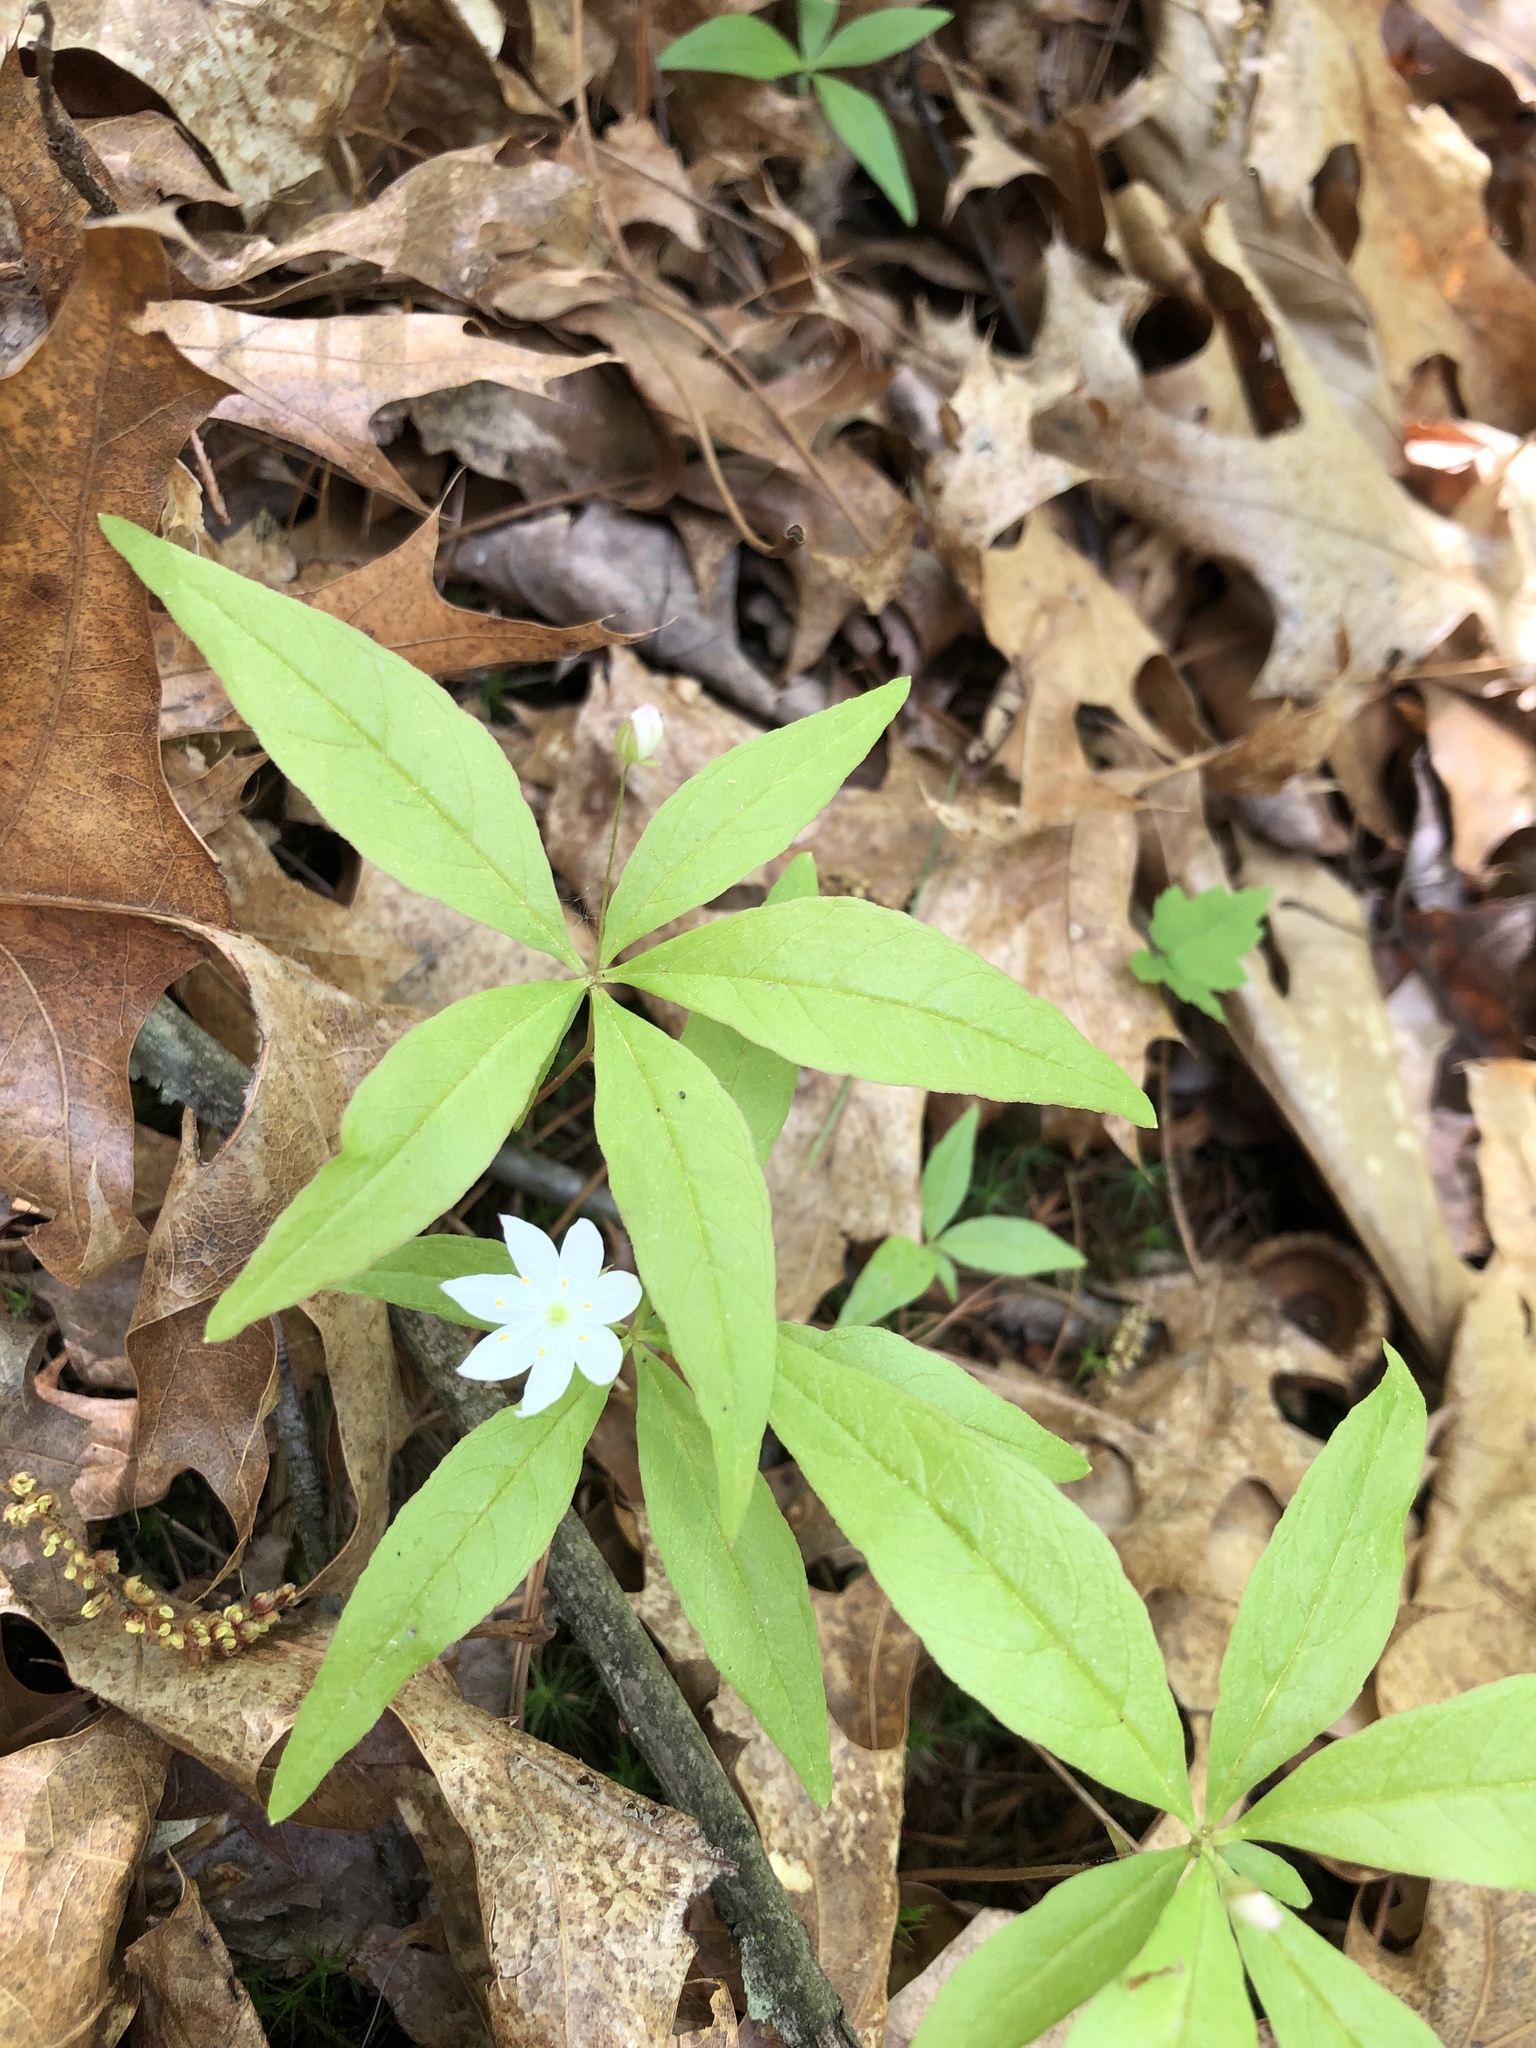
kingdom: Plantae
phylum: Tracheophyta
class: Magnoliopsida
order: Ericales
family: Primulaceae
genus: Lysimachia
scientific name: Lysimachia borealis
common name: American starflower
